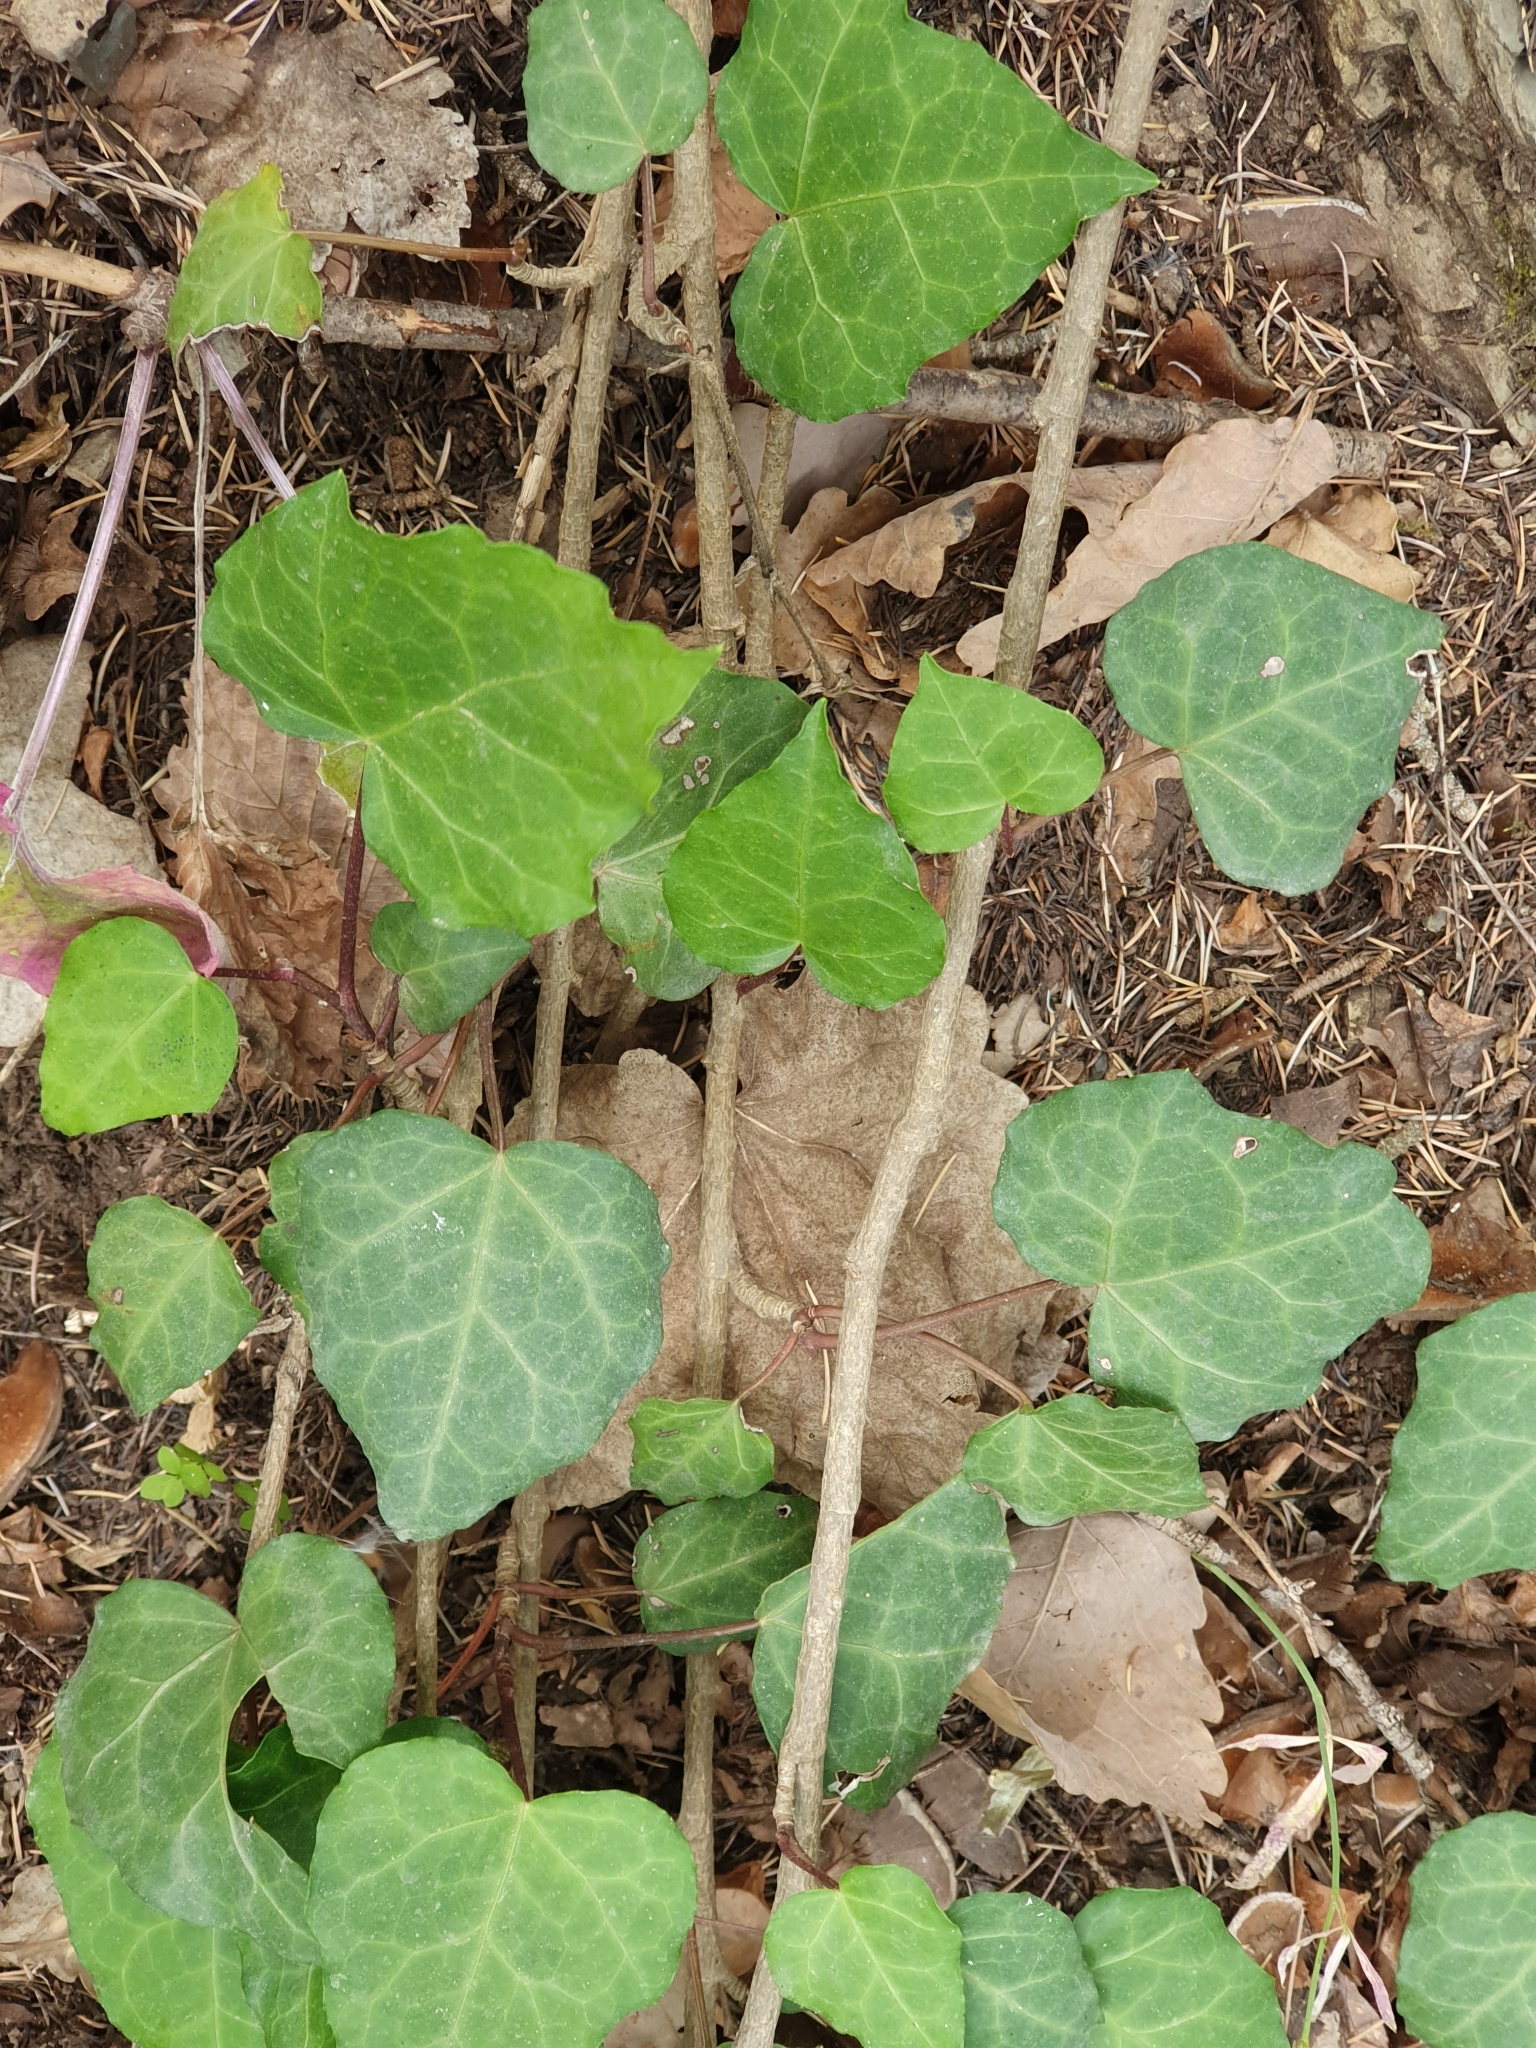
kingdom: Plantae
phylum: Tracheophyta
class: Magnoliopsida
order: Apiales
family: Araliaceae
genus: Hedera
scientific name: Hedera algeriensis
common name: Algerian ivy
